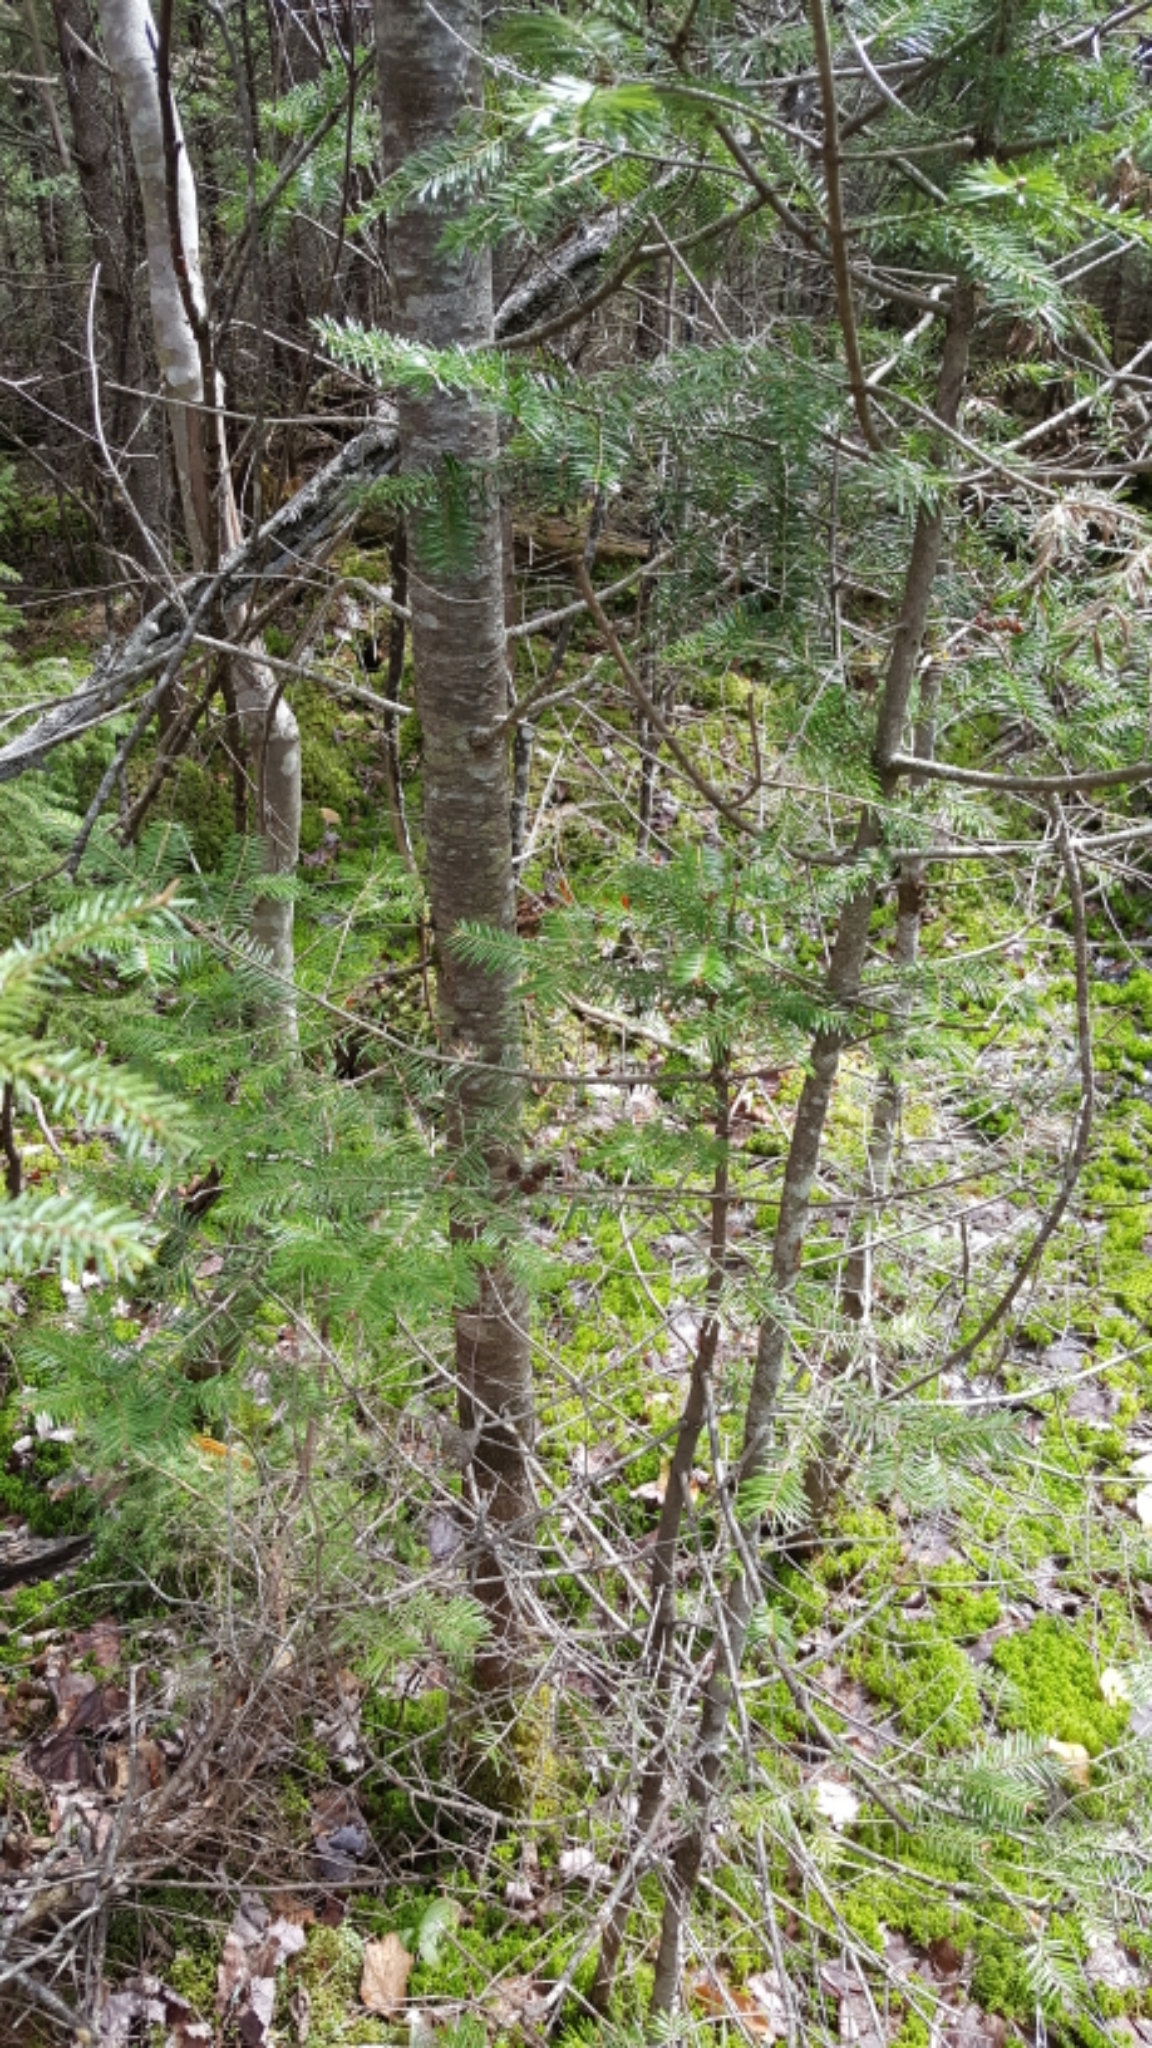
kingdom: Plantae
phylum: Tracheophyta
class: Pinopsida
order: Pinales
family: Pinaceae
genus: Abies
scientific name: Abies balsamea
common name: Balsam fir
